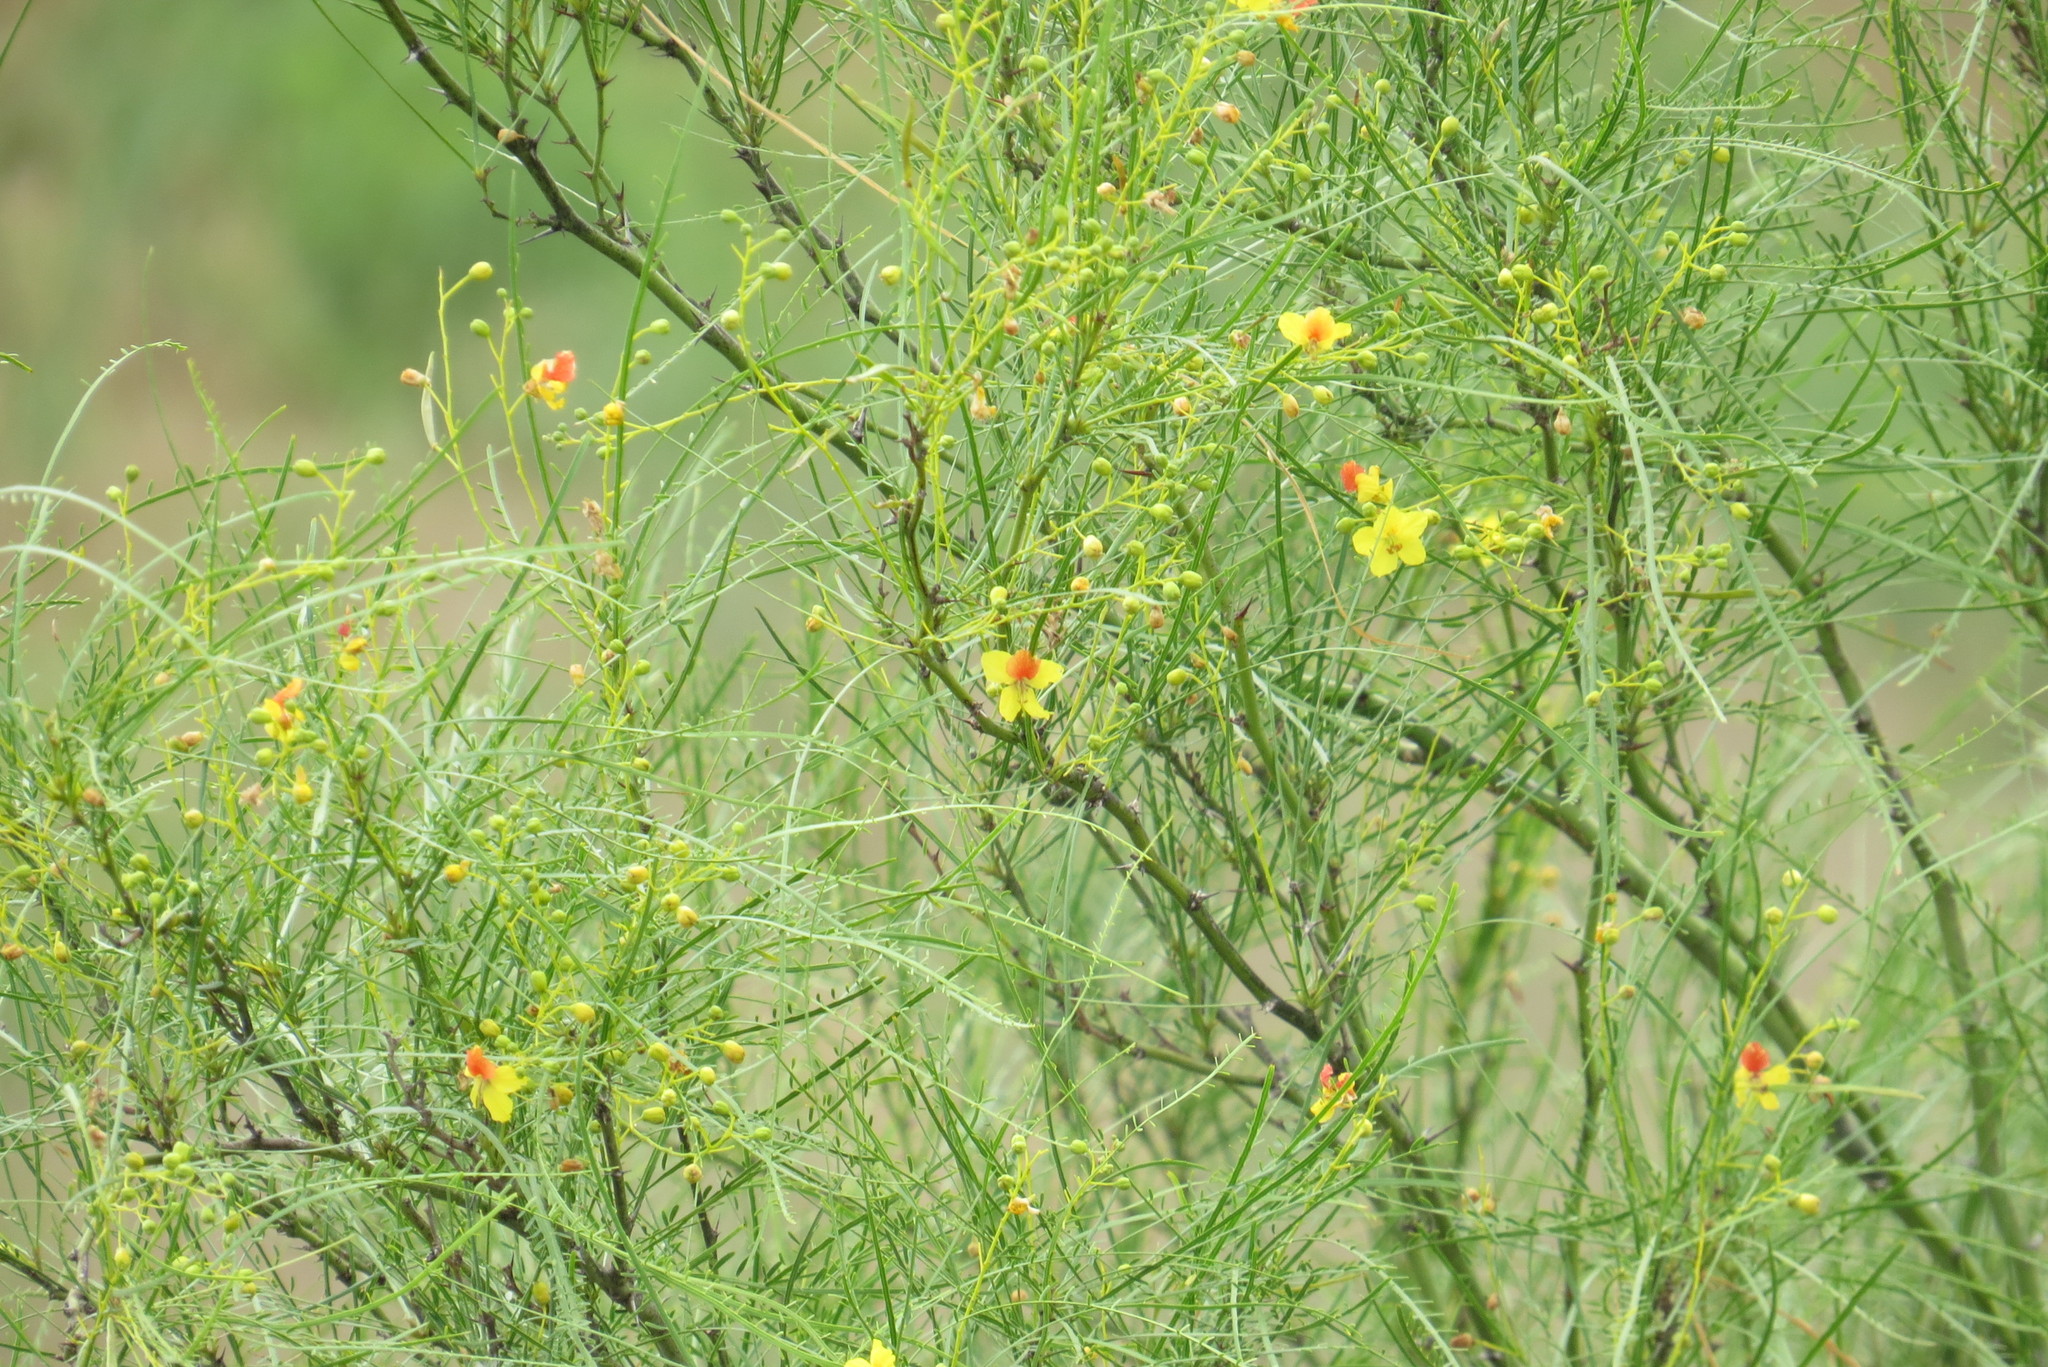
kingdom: Plantae
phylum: Tracheophyta
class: Magnoliopsida
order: Fabales
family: Fabaceae
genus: Parkinsonia
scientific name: Parkinsonia aculeata
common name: Jerusalem thorn
